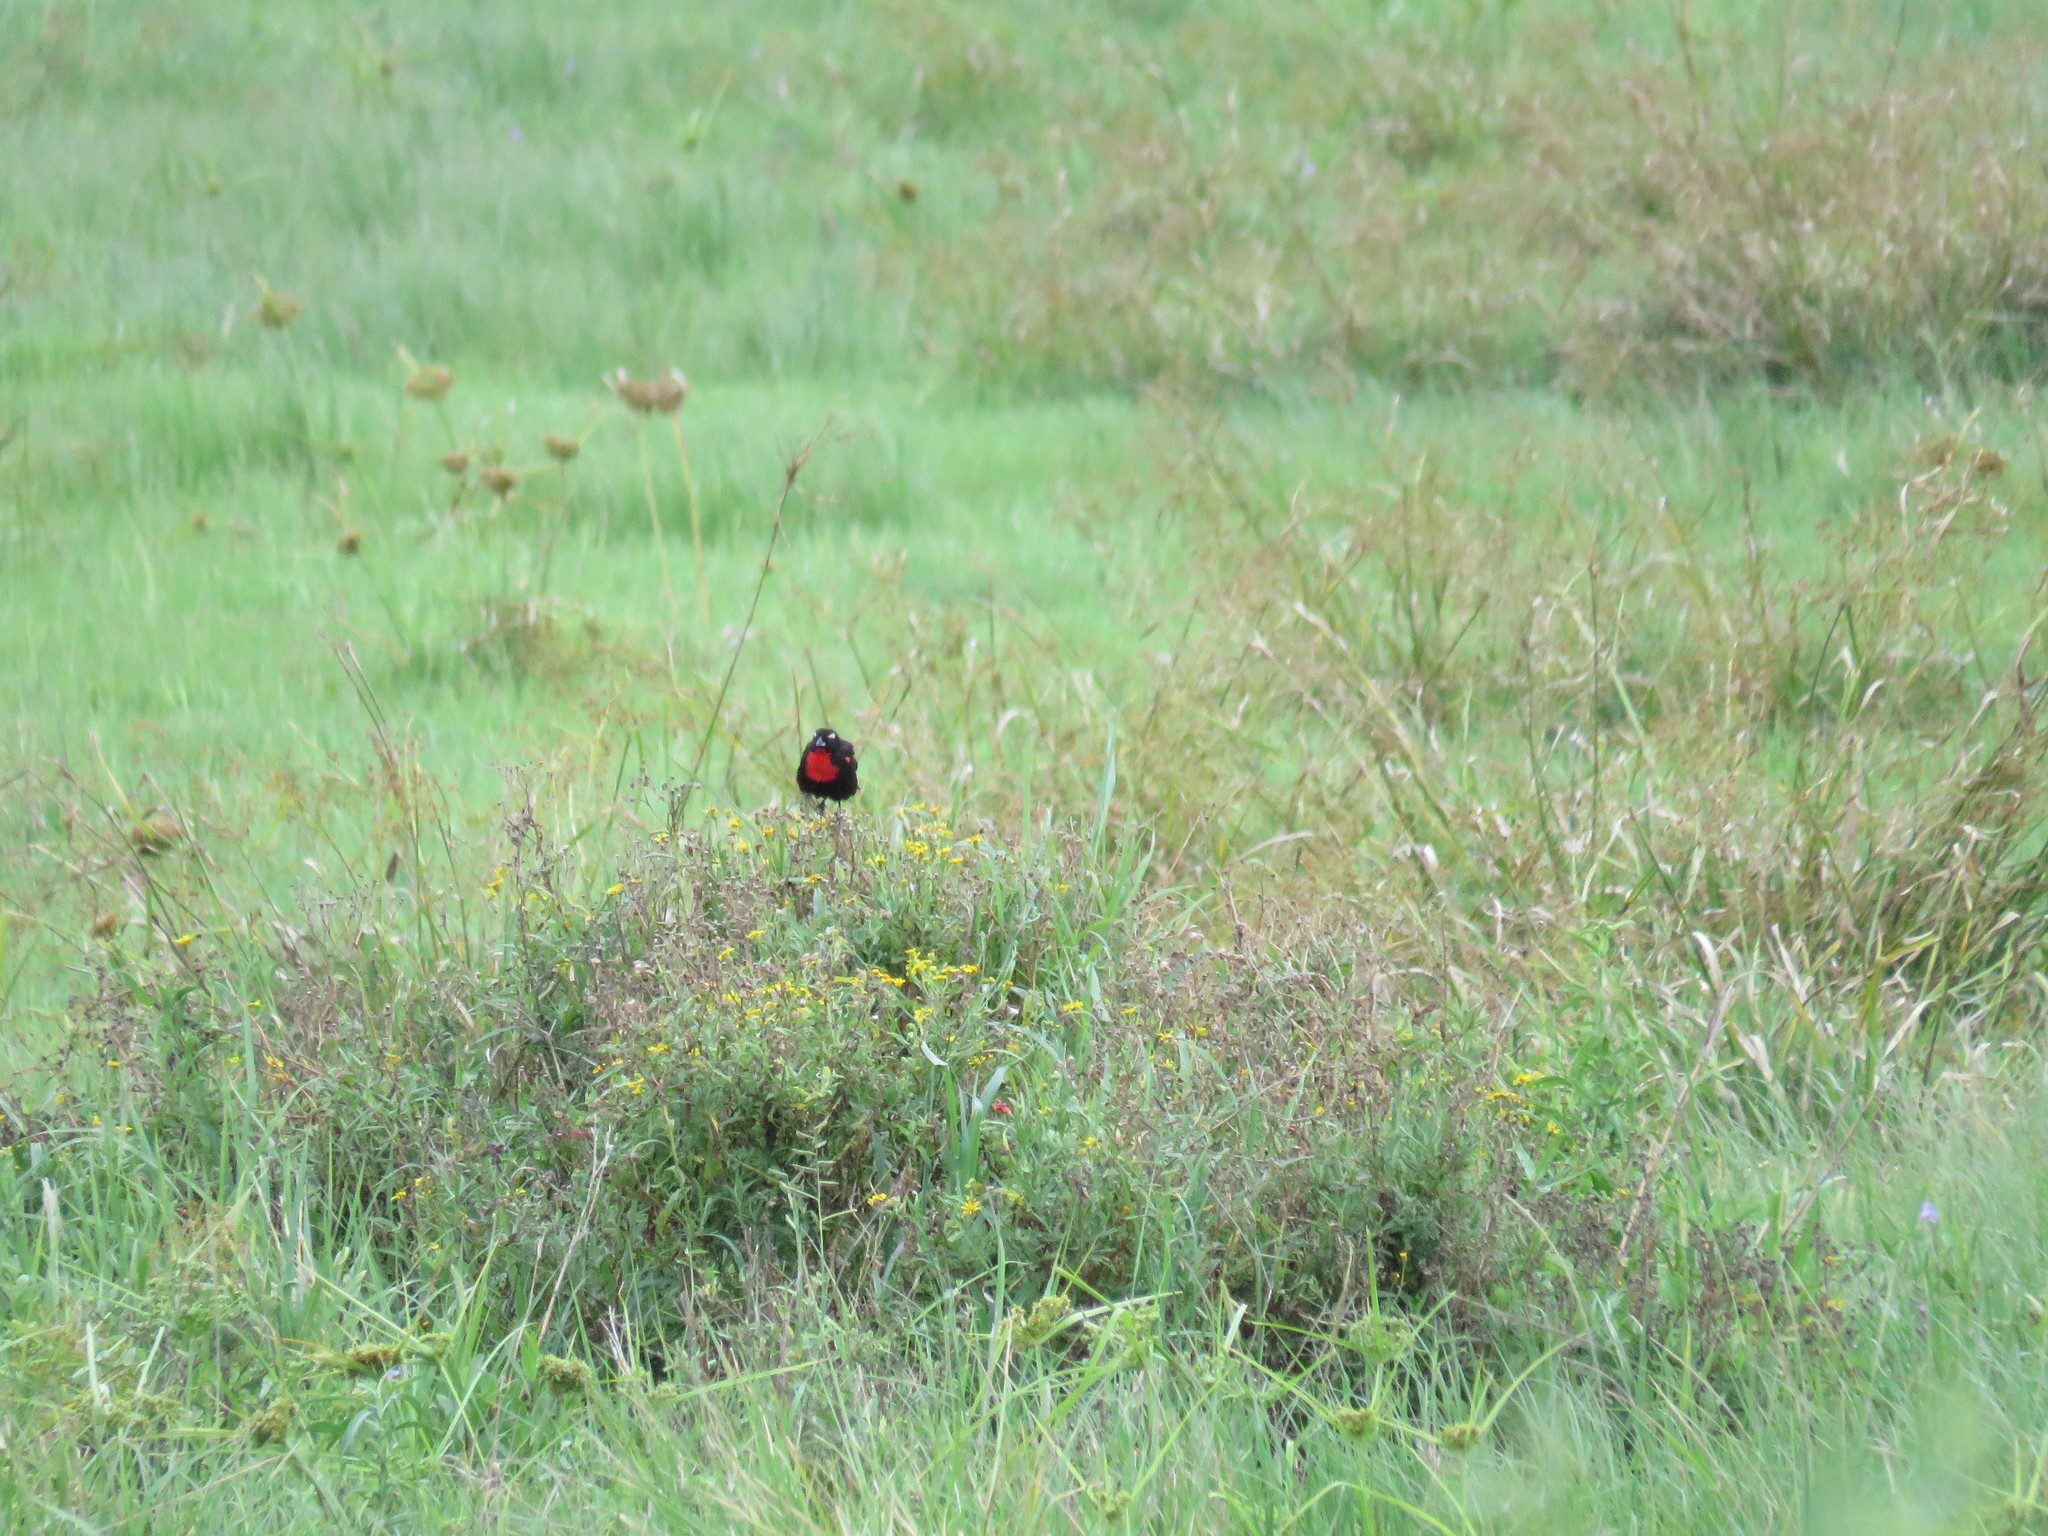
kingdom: Animalia
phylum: Chordata
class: Aves
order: Passeriformes
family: Icteridae
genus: Sturnella
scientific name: Sturnella superciliaris
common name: White-browed blackbird
